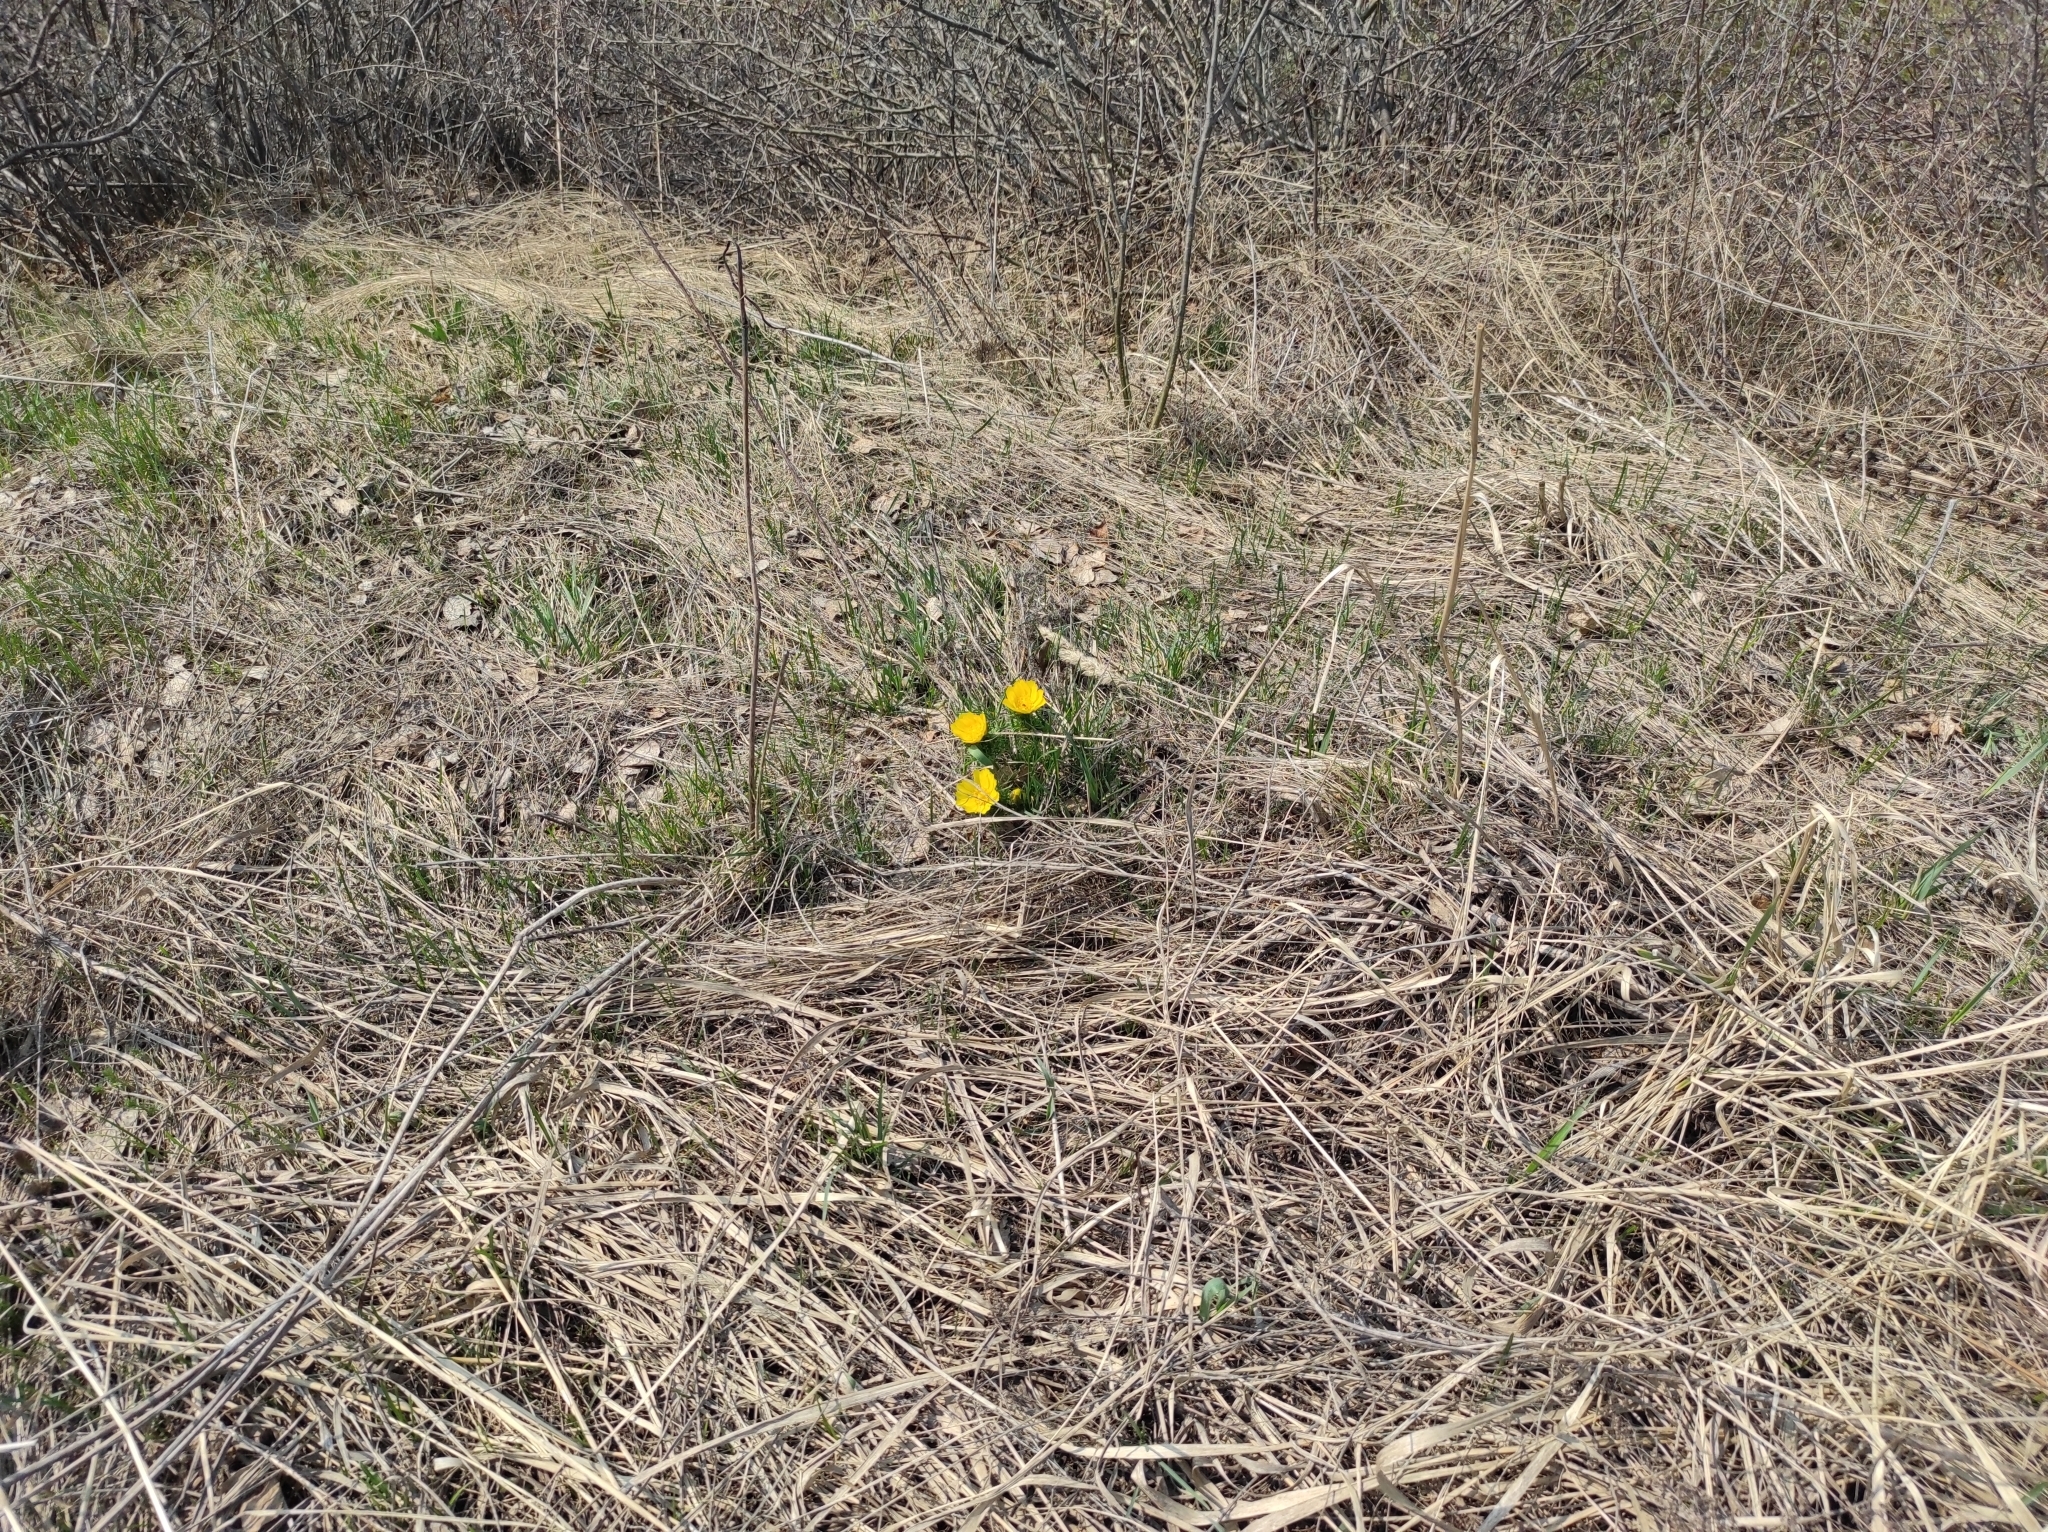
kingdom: Plantae
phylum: Tracheophyta
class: Magnoliopsida
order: Ranunculales
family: Ranunculaceae
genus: Adonis
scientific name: Adonis vernalis
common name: Yellow pheasants-eye
